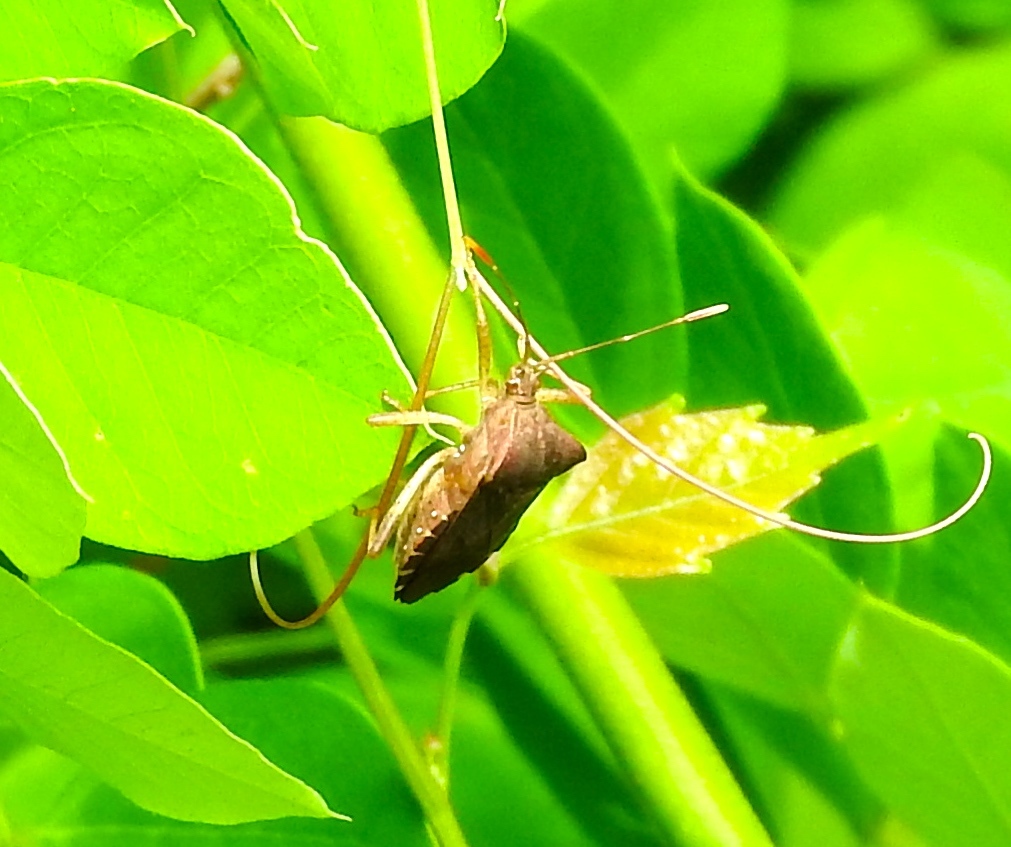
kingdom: Animalia
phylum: Arthropoda
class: Insecta
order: Hemiptera
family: Coreidae
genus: Anasa
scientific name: Anasa scorbutica
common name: Squash bug
